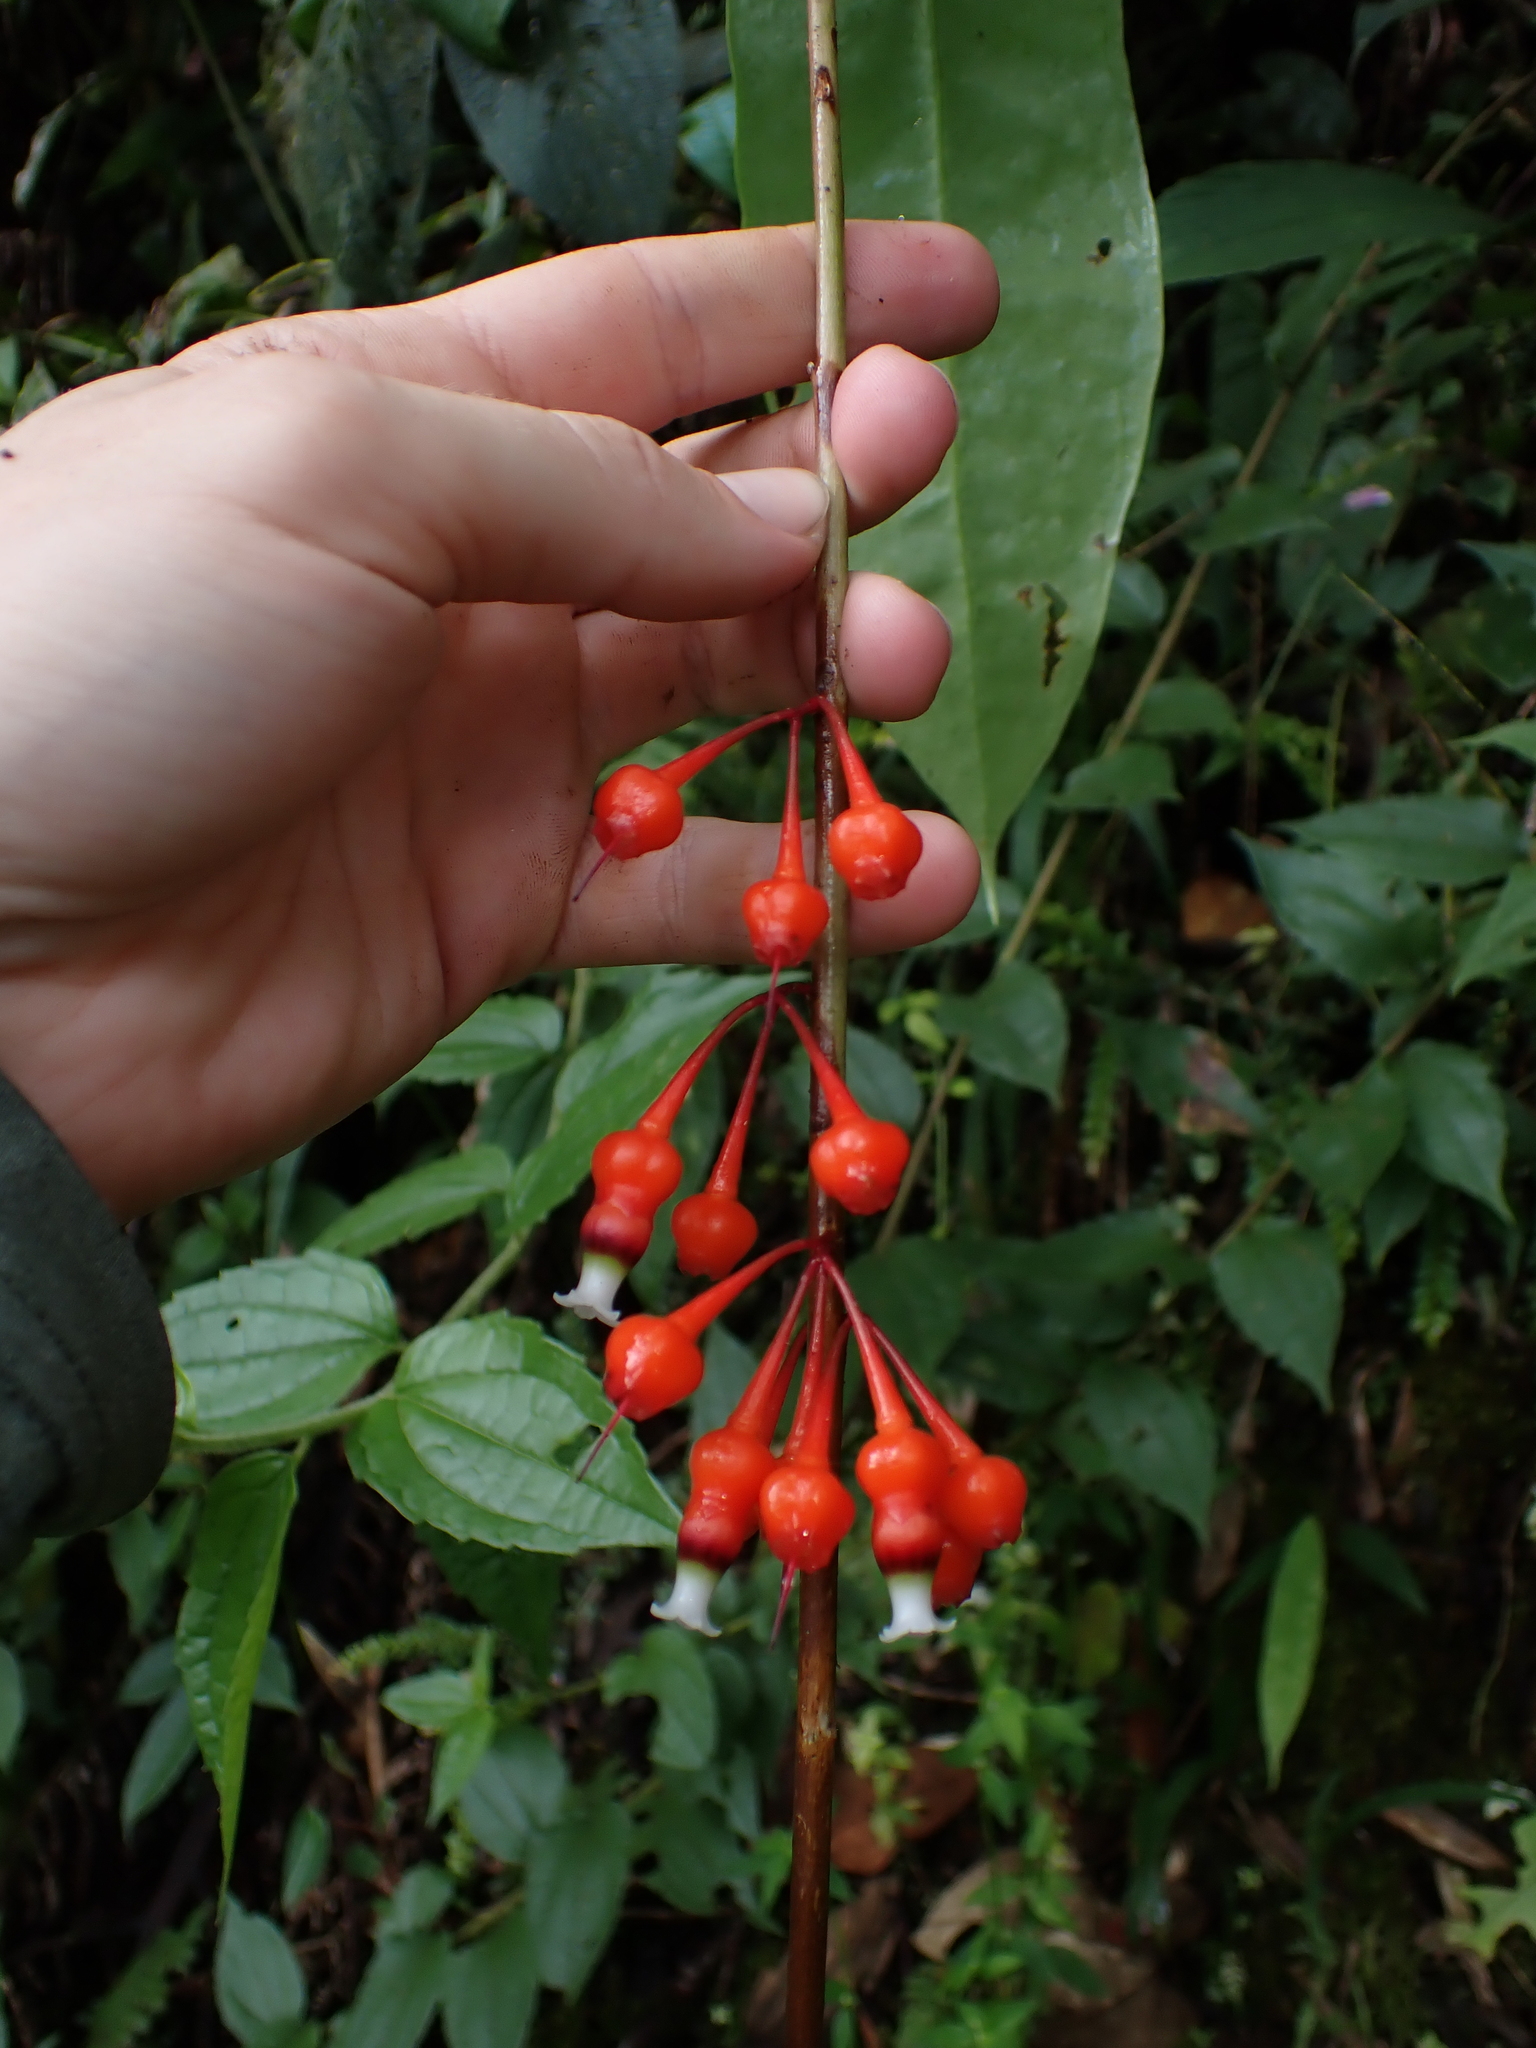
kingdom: Plantae
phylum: Tracheophyta
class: Magnoliopsida
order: Ericales
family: Ericaceae
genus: Psammisia
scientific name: Psammisia debilis
